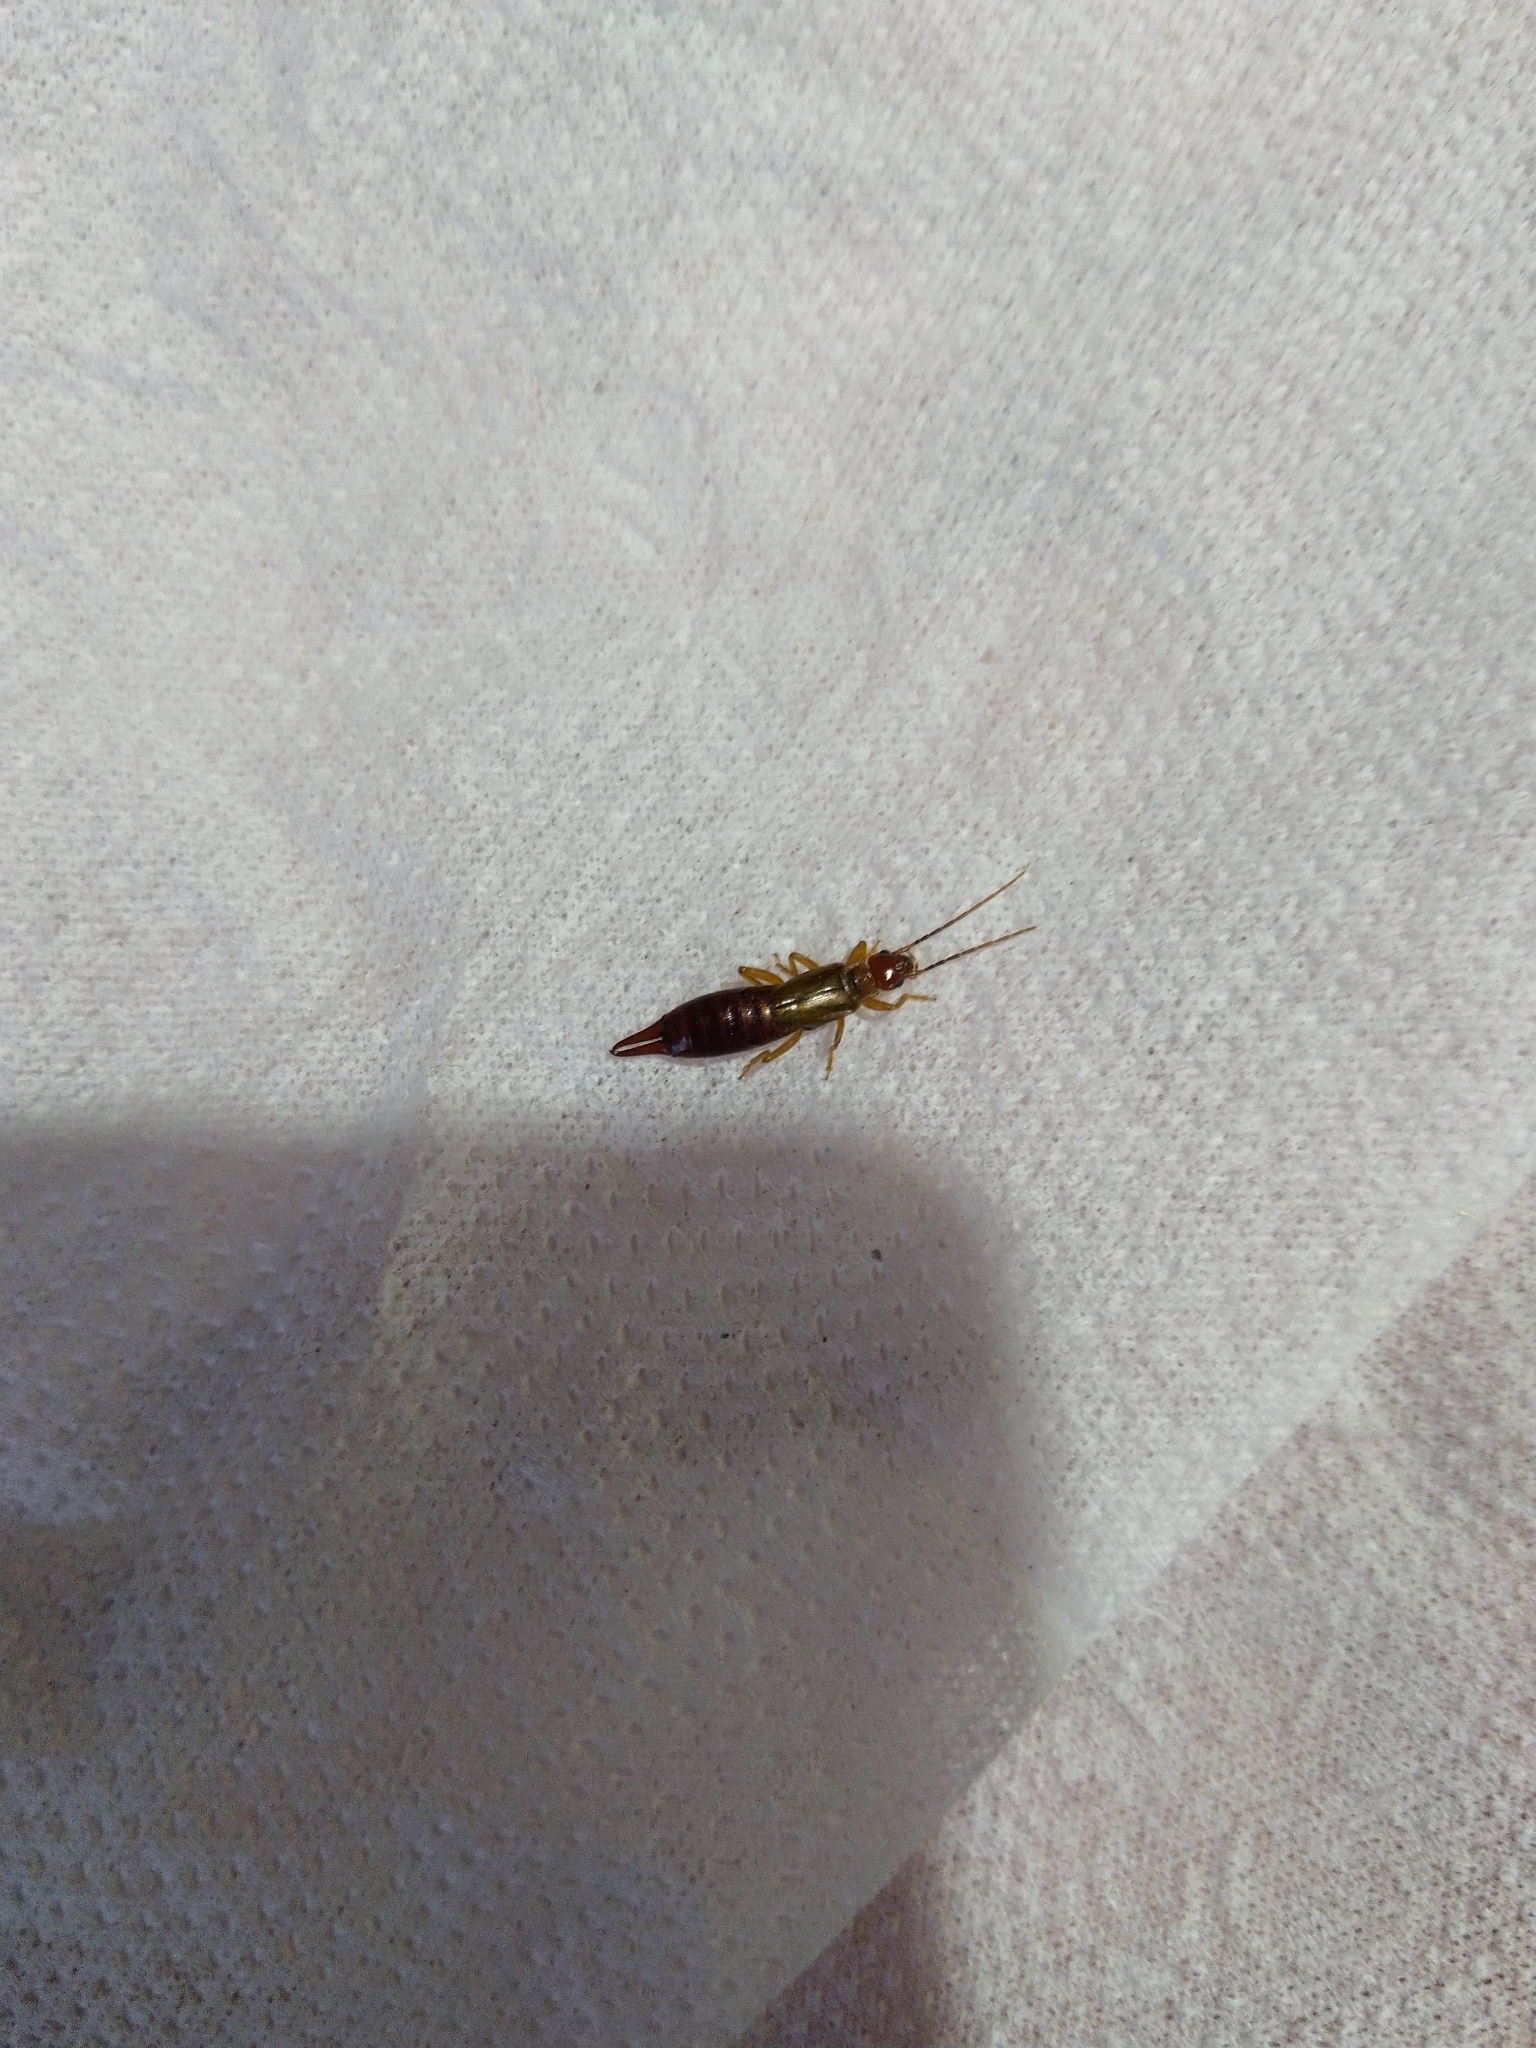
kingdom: Animalia
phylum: Arthropoda
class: Insecta
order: Dermaptera
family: Forficulidae
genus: Forficula
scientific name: Forficula planicollis
